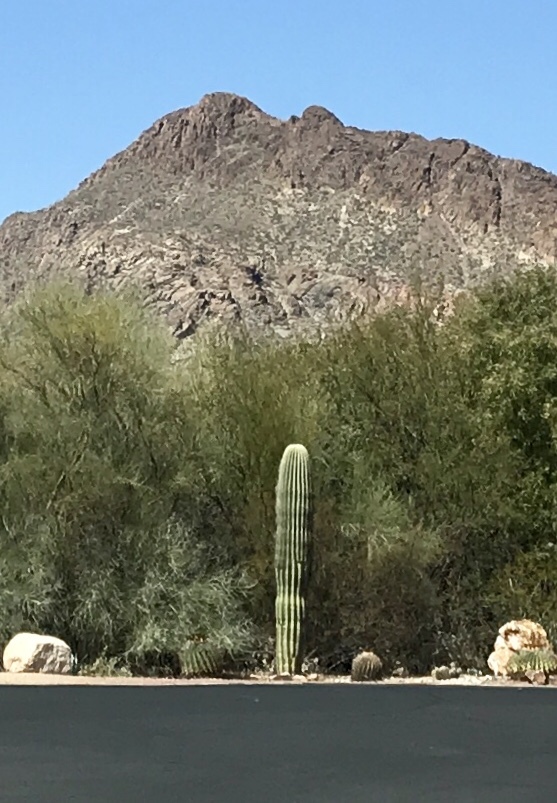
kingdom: Plantae
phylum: Tracheophyta
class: Magnoliopsida
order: Caryophyllales
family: Cactaceae
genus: Carnegiea
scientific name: Carnegiea gigantea
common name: Saguaro
